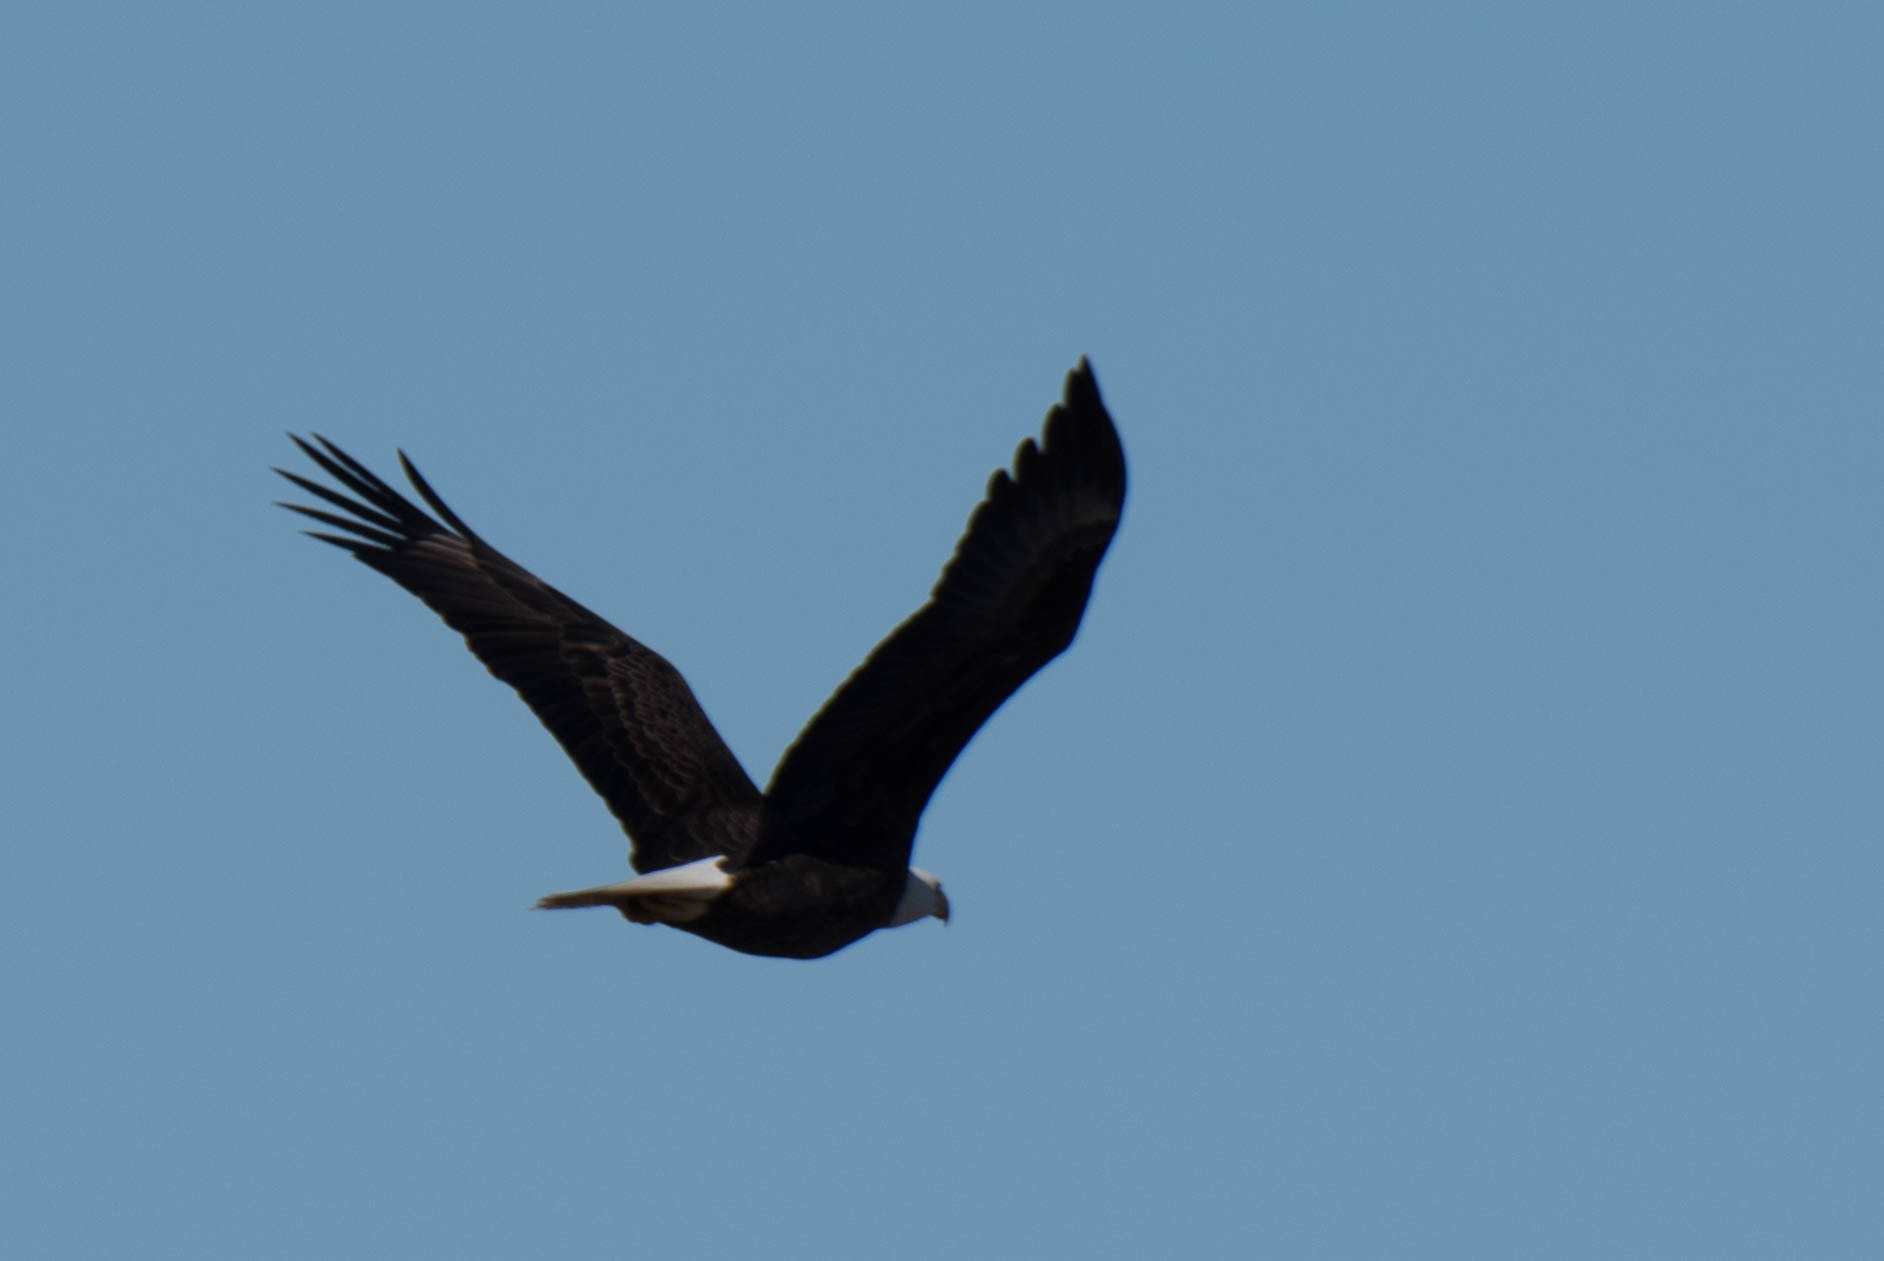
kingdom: Animalia
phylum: Chordata
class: Aves
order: Accipitriformes
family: Accipitridae
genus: Haliaeetus
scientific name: Haliaeetus leucocephalus
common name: Bald eagle
